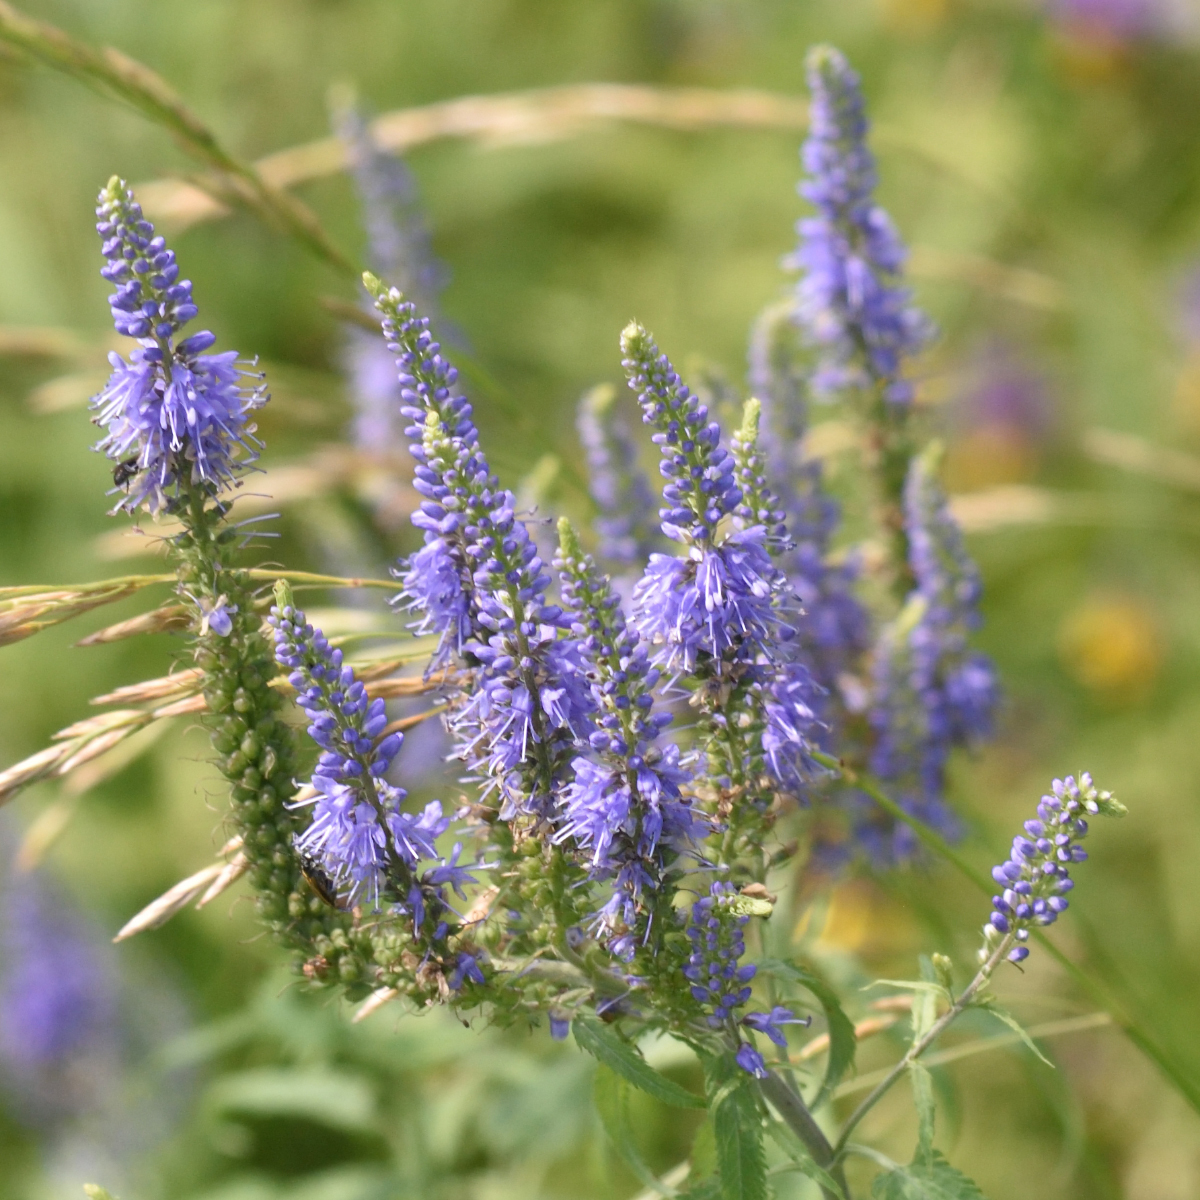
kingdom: Plantae
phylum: Tracheophyta
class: Magnoliopsida
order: Lamiales
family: Plantaginaceae
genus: Veronica
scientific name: Veronica longifolia
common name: Garden speedwell
